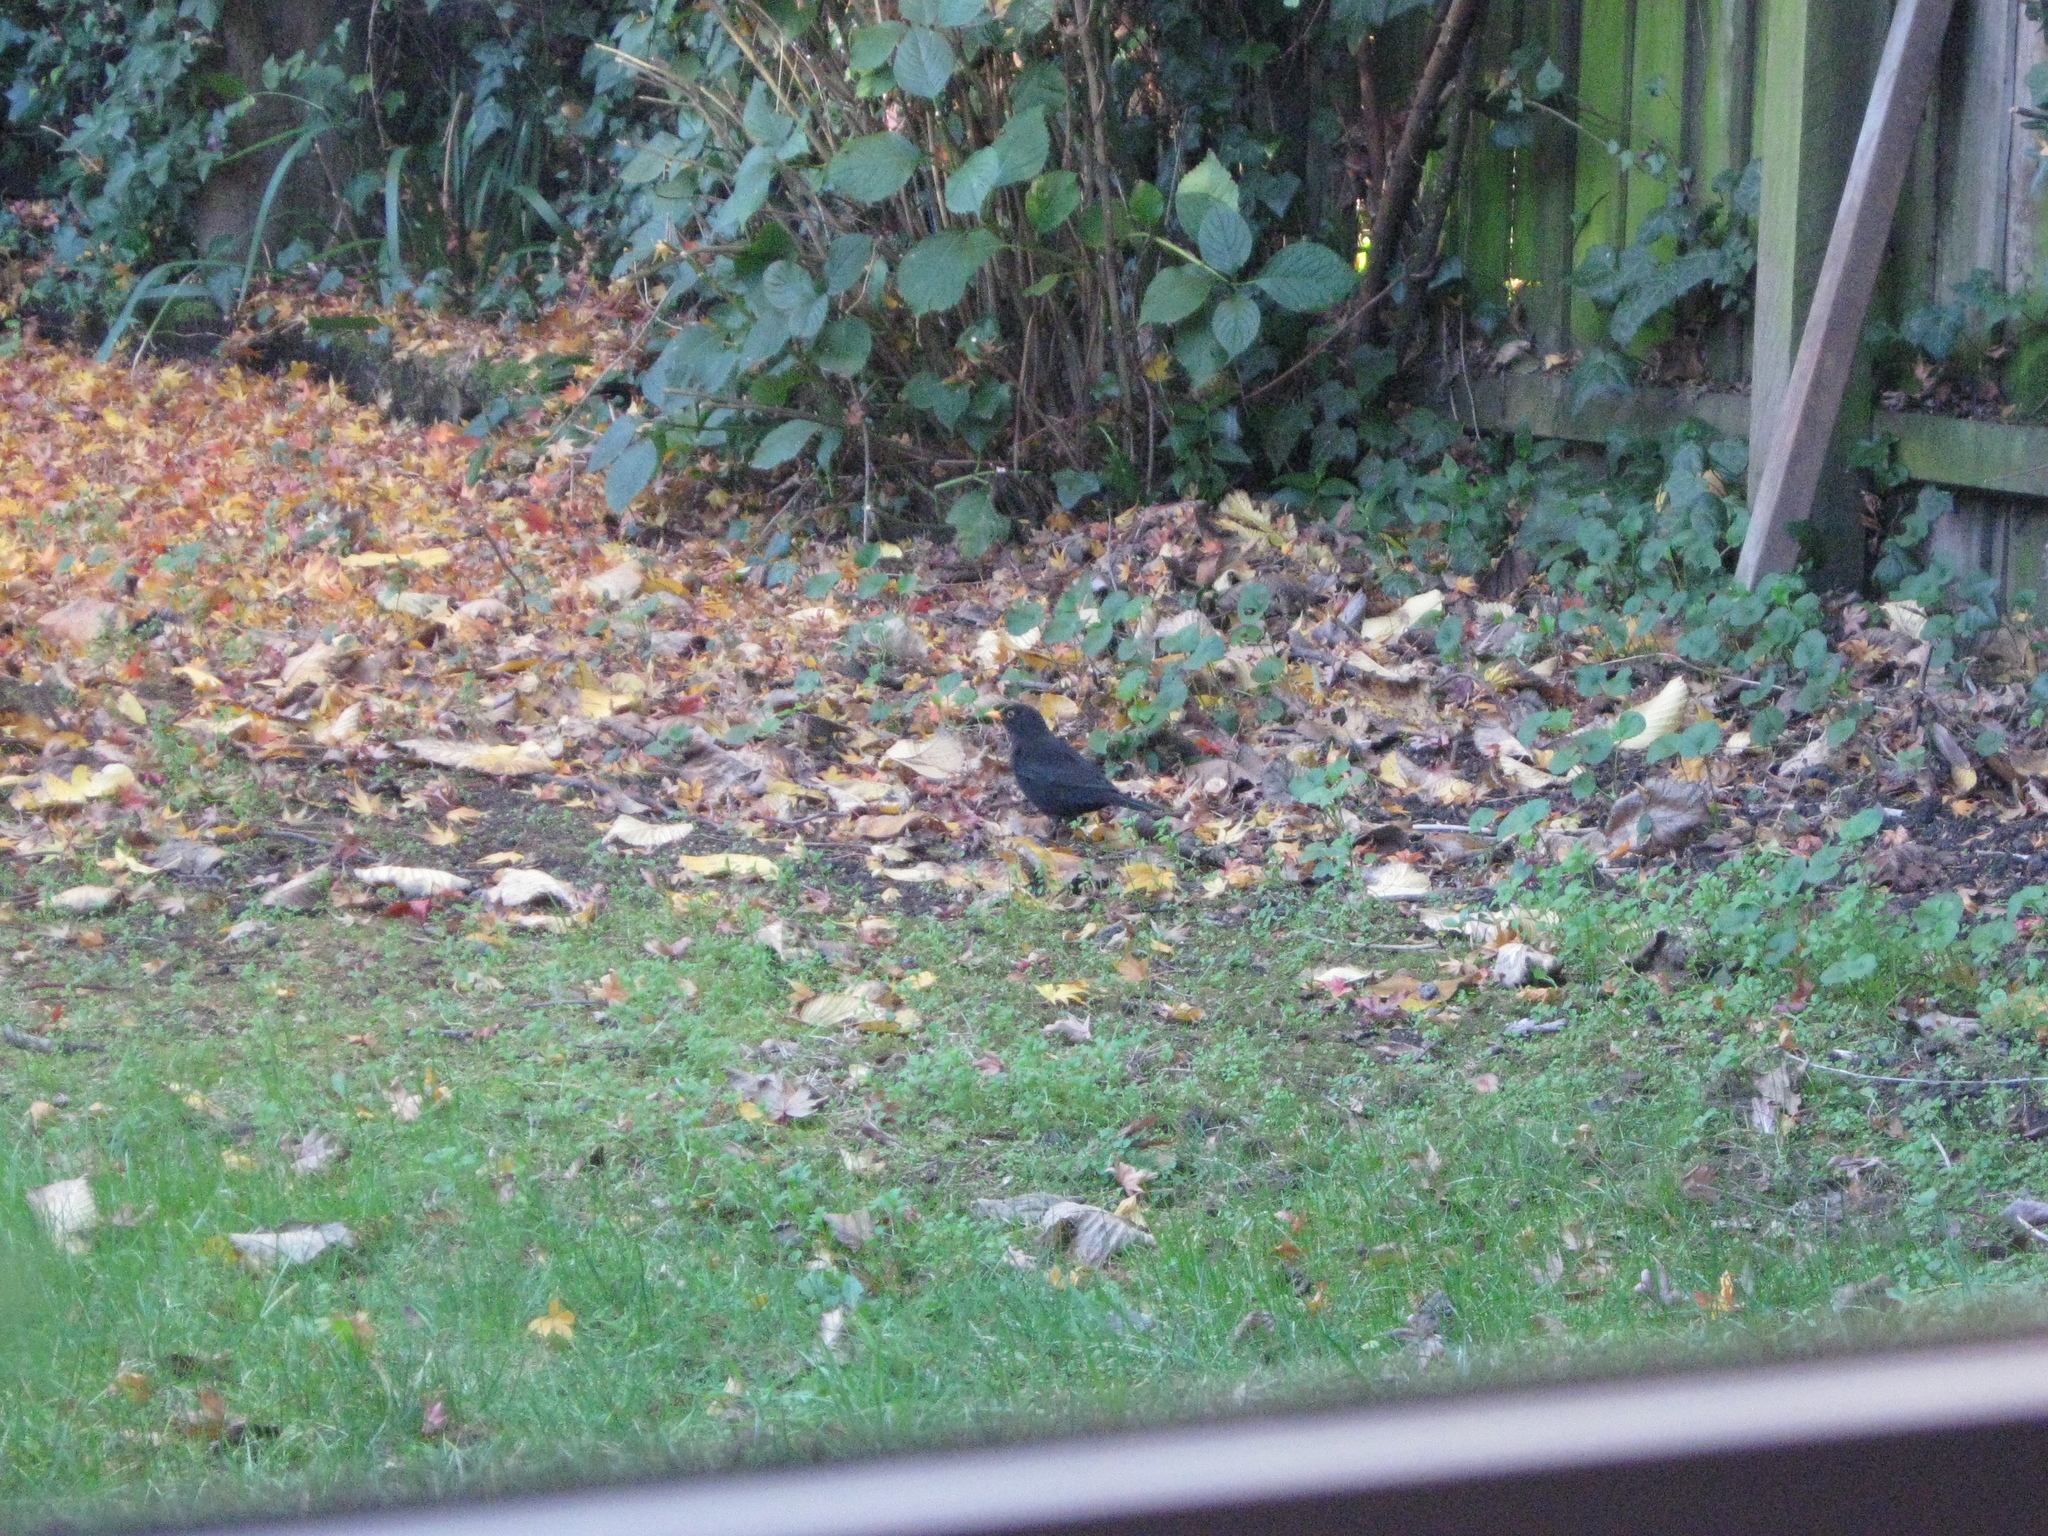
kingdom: Animalia
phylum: Chordata
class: Aves
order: Passeriformes
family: Turdidae
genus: Turdus
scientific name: Turdus merula
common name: Common blackbird
